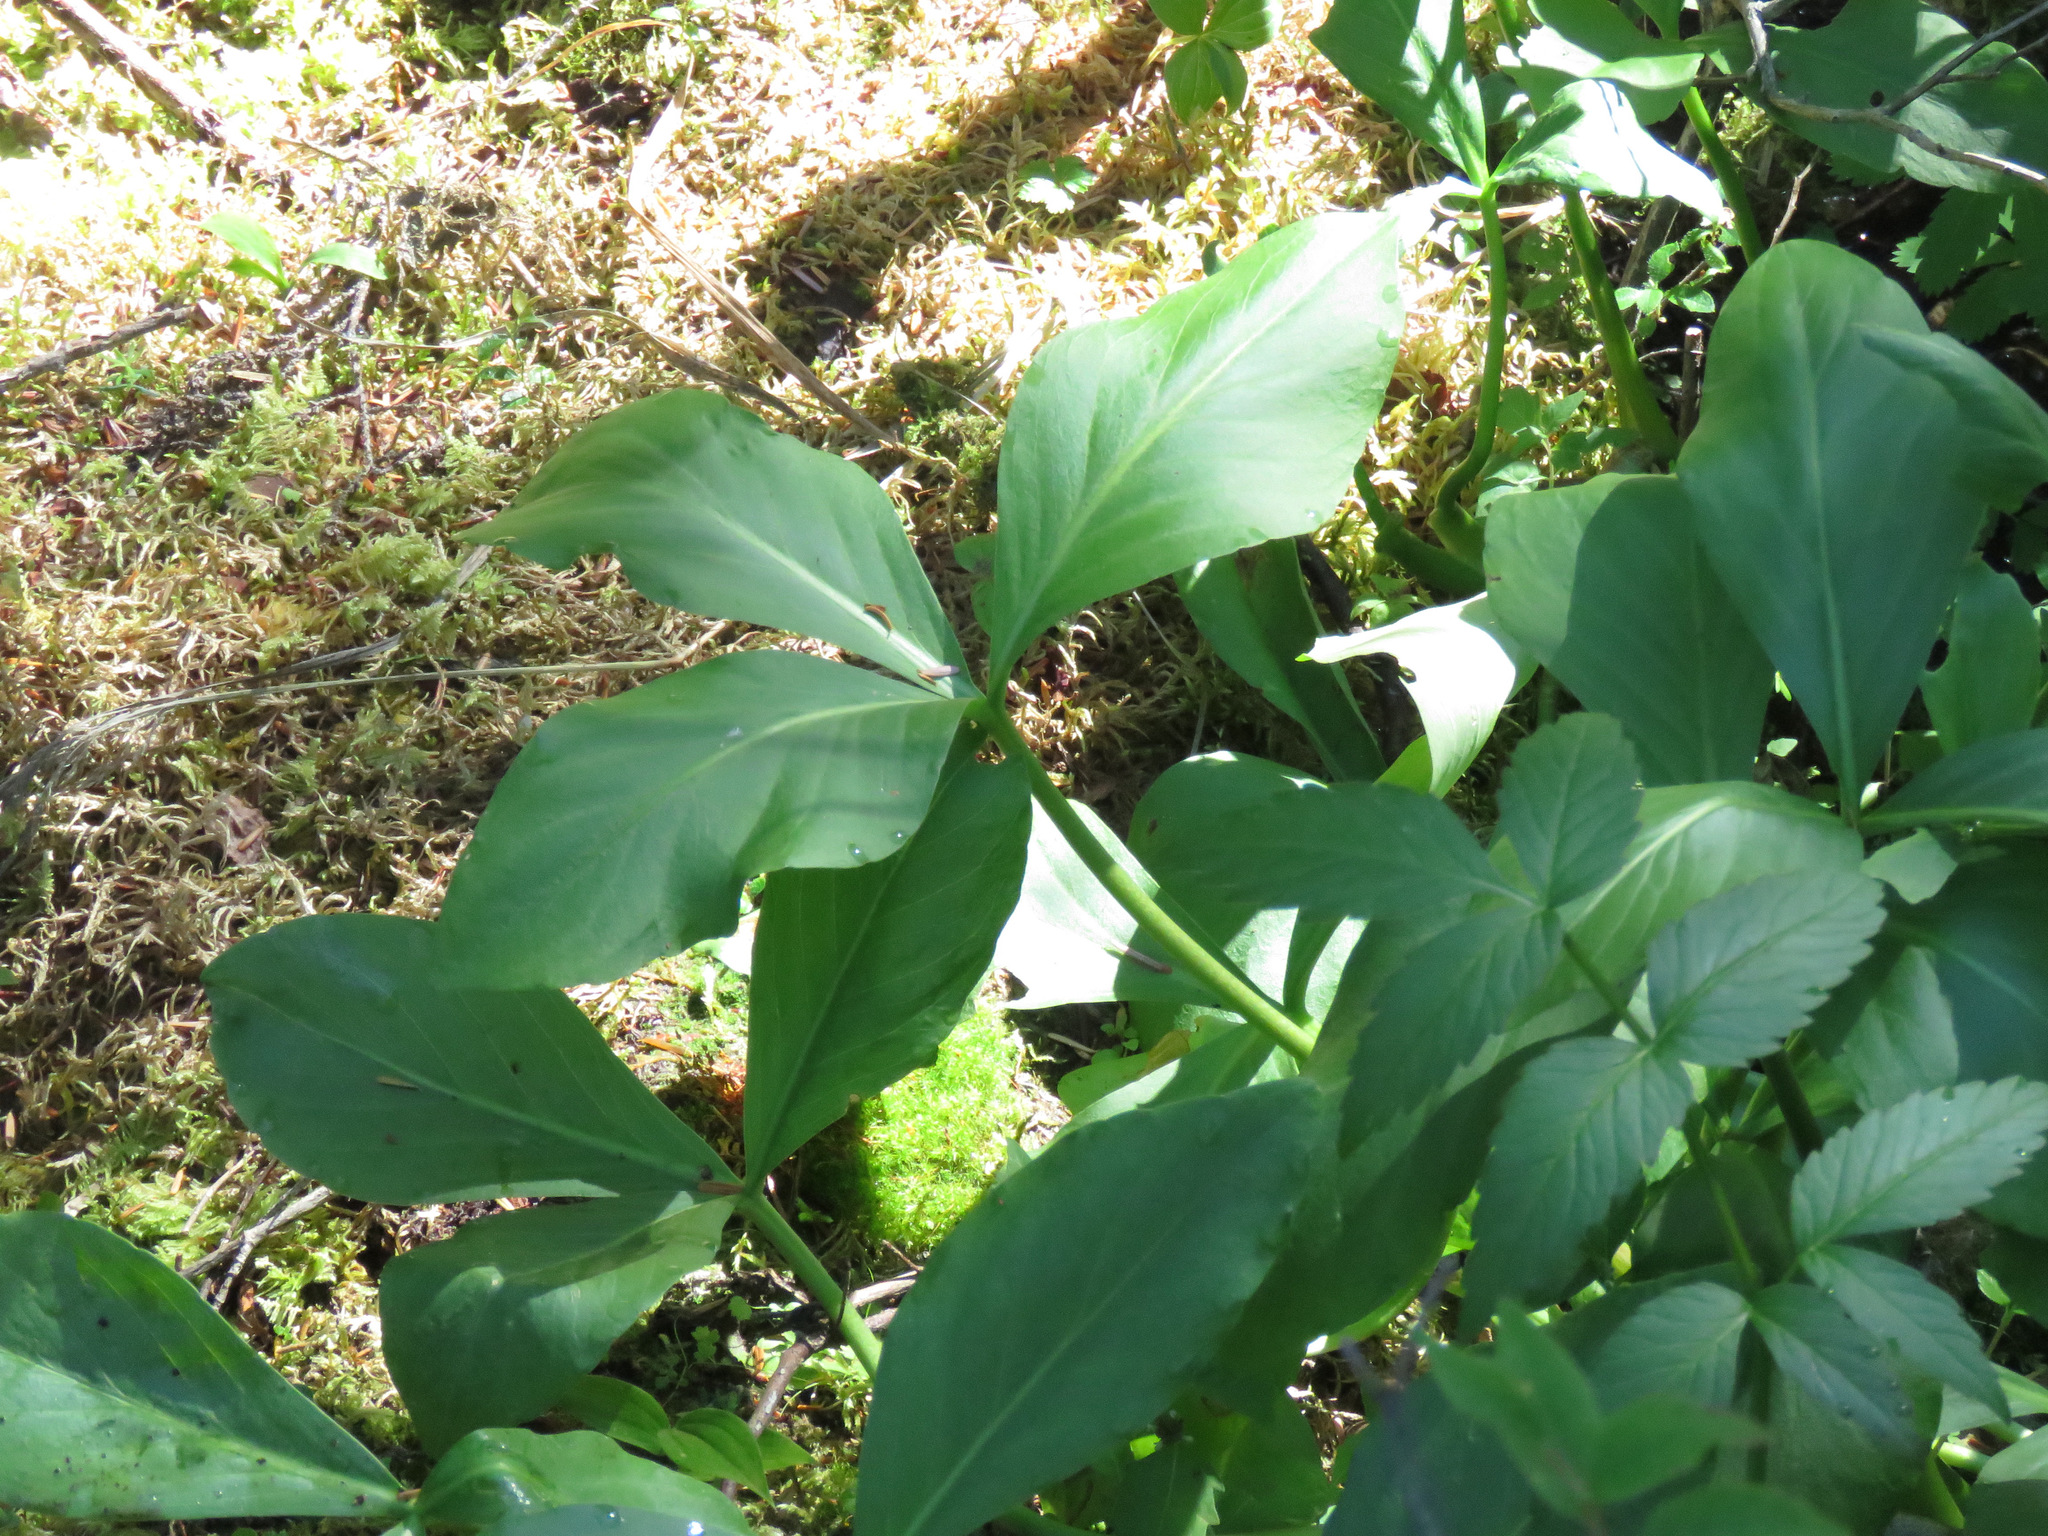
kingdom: Plantae
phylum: Tracheophyta
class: Magnoliopsida
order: Asterales
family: Menyanthaceae
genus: Menyanthes
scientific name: Menyanthes trifoliata
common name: Bogbean
